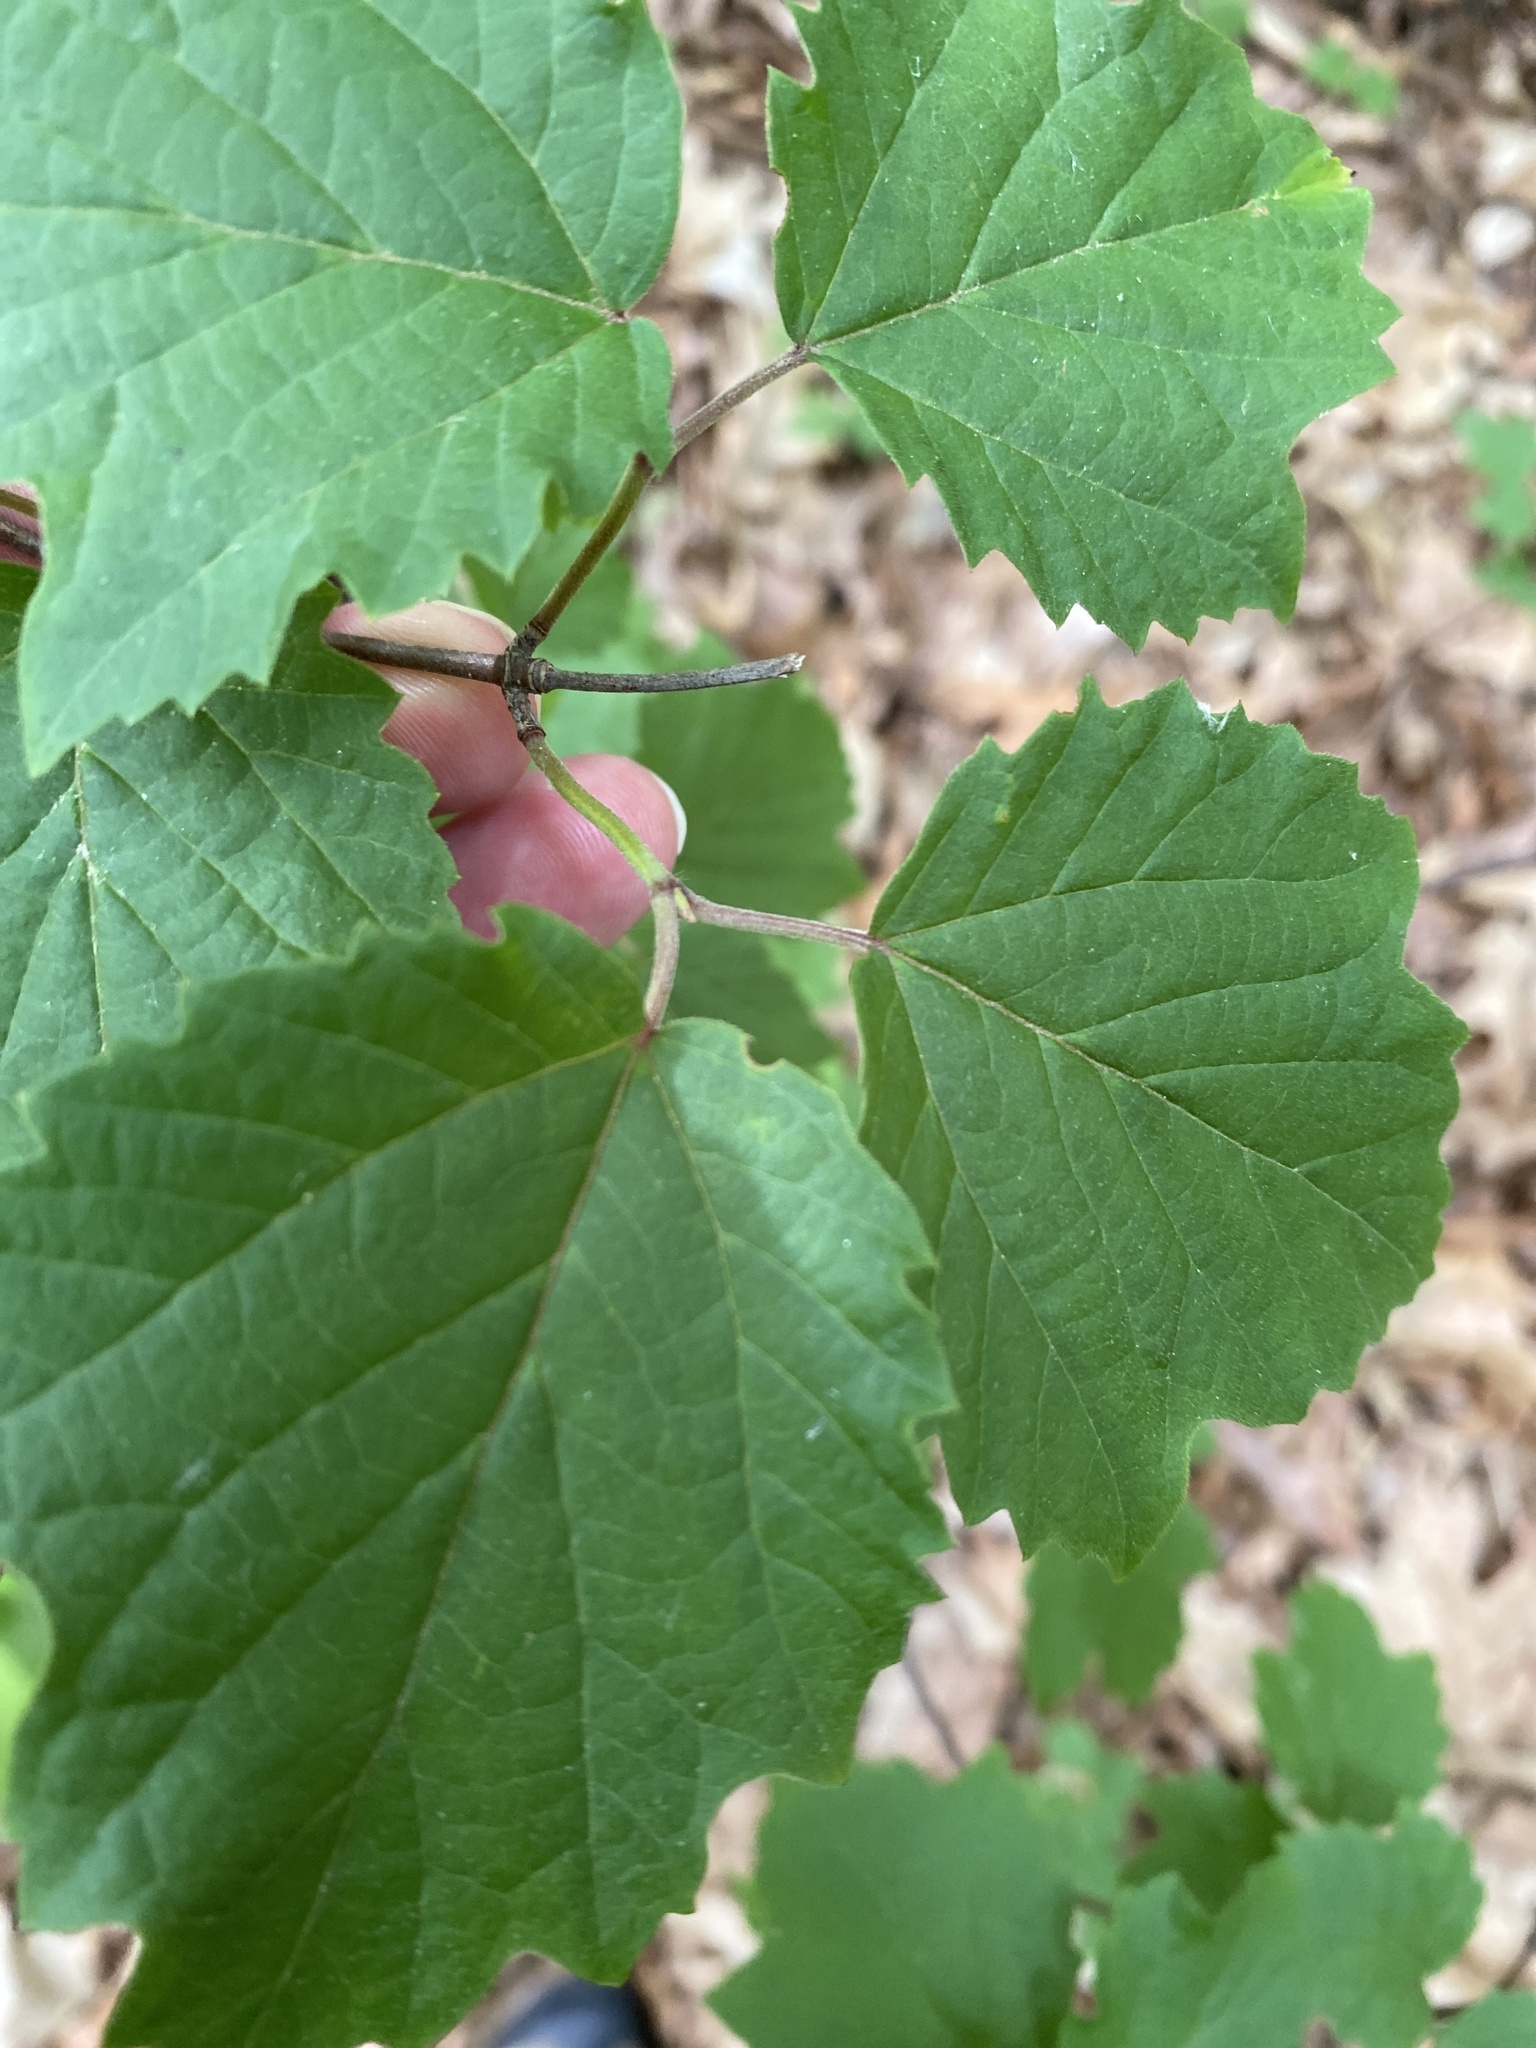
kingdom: Plantae
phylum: Tracheophyta
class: Magnoliopsida
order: Dipsacales
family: Viburnaceae
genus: Viburnum
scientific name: Viburnum acerifolium
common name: Dockmackie
